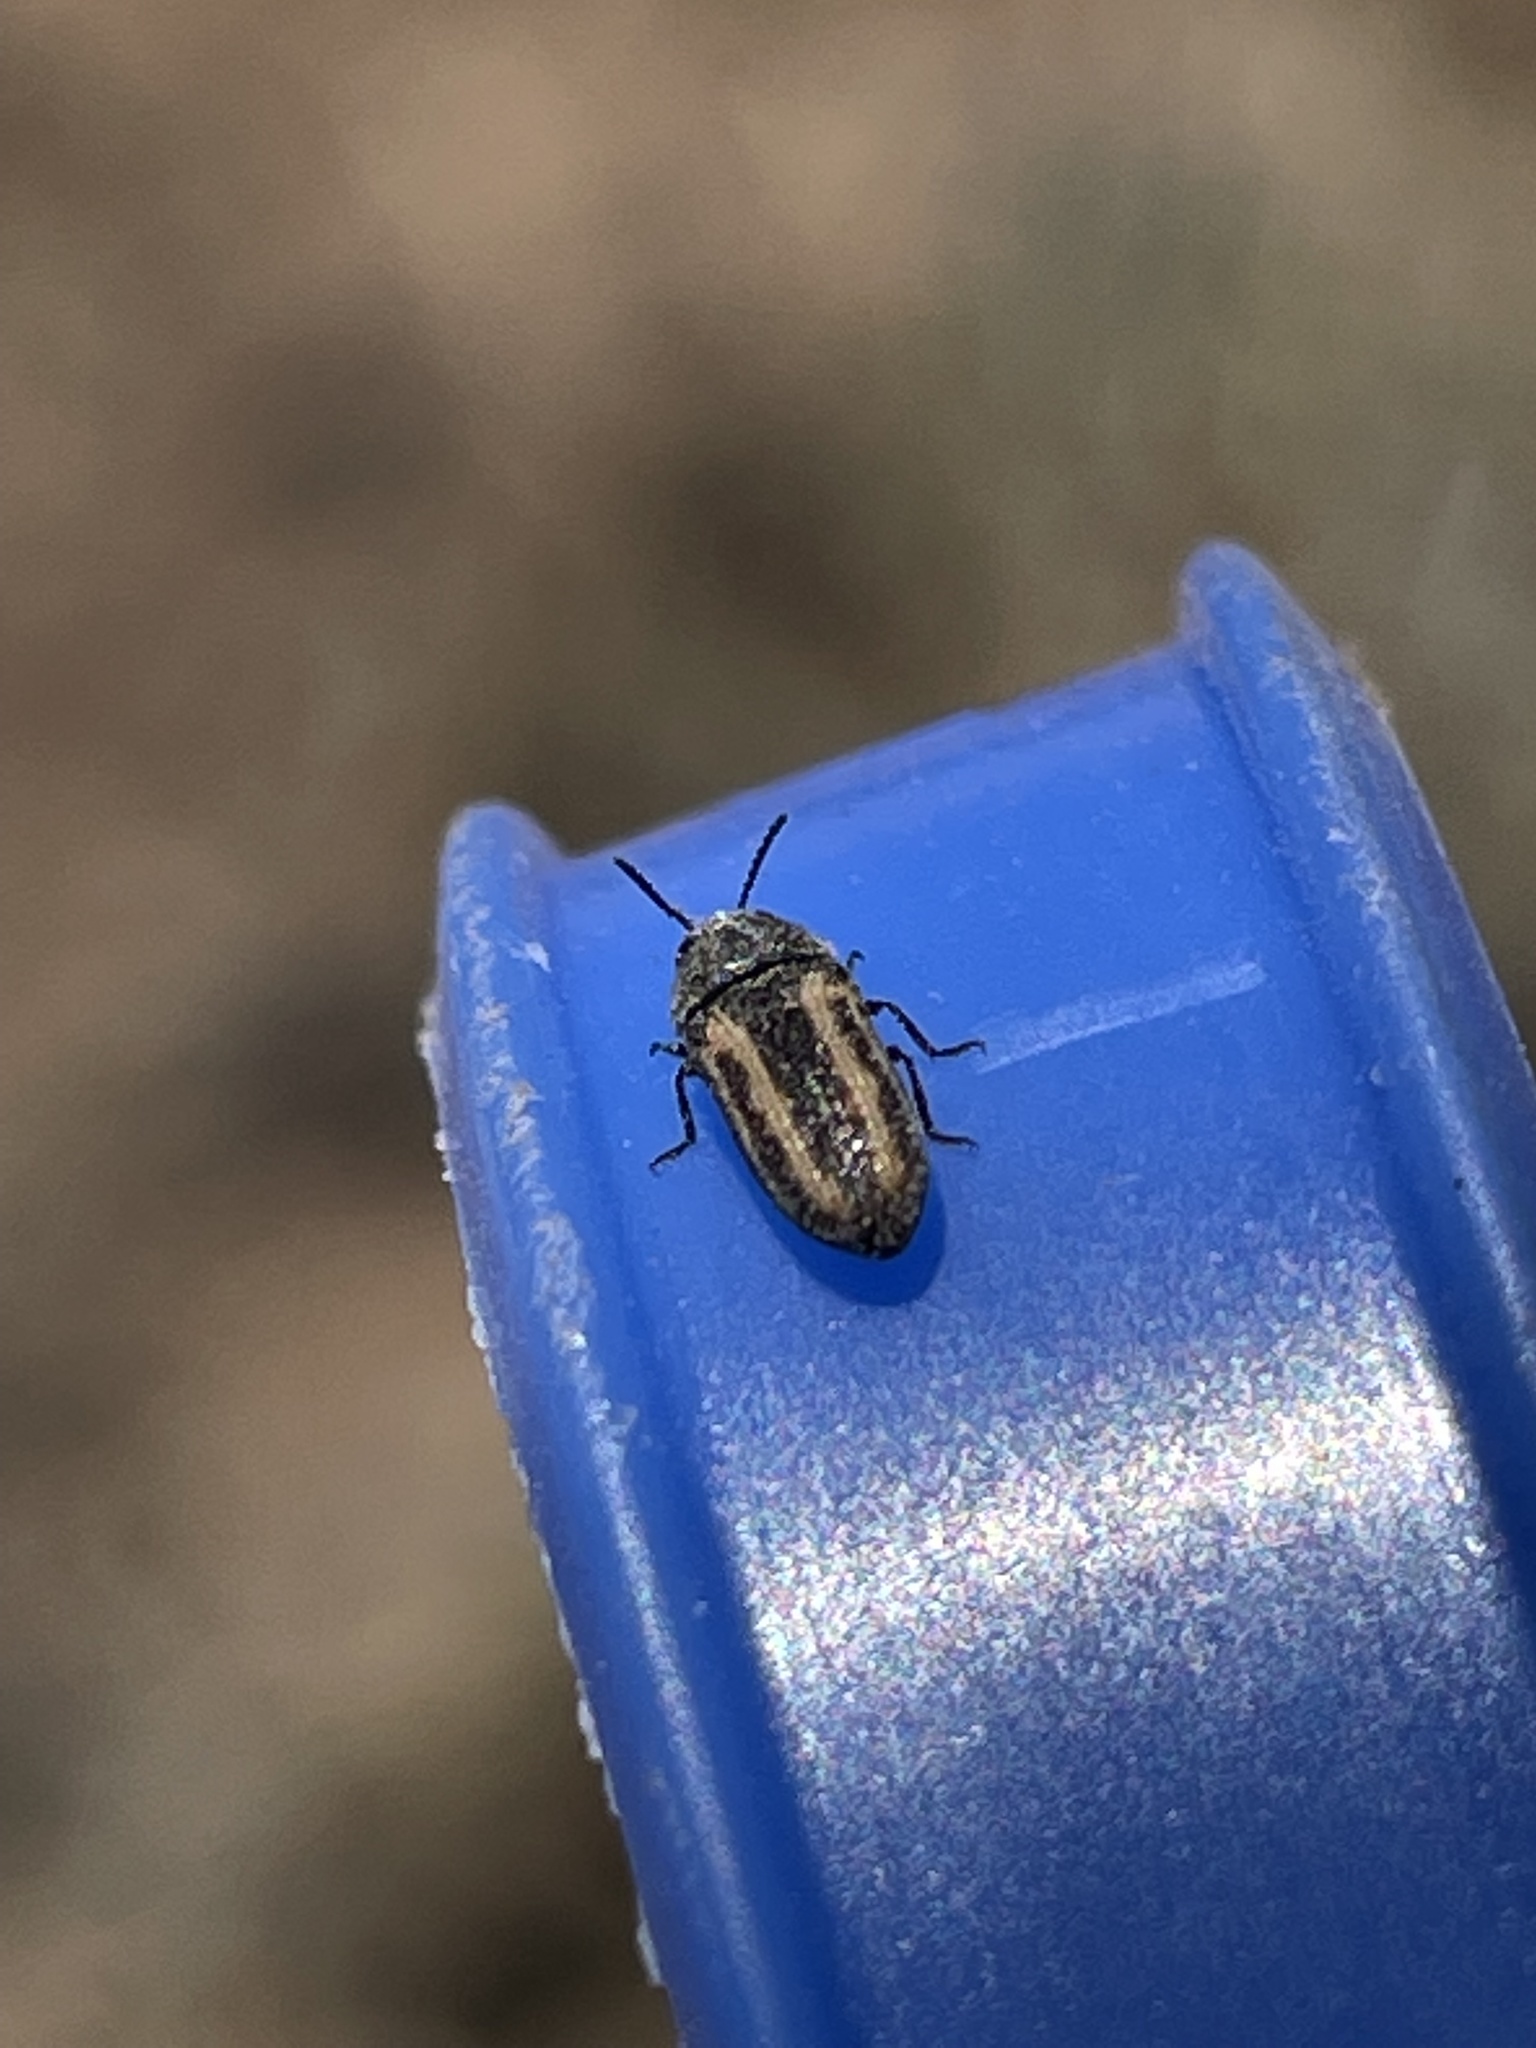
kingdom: Animalia
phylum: Arthropoda
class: Insecta
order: Coleoptera
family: Buprestidae
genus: Acmaeodera
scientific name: Acmaeodera quadrivittatoides
